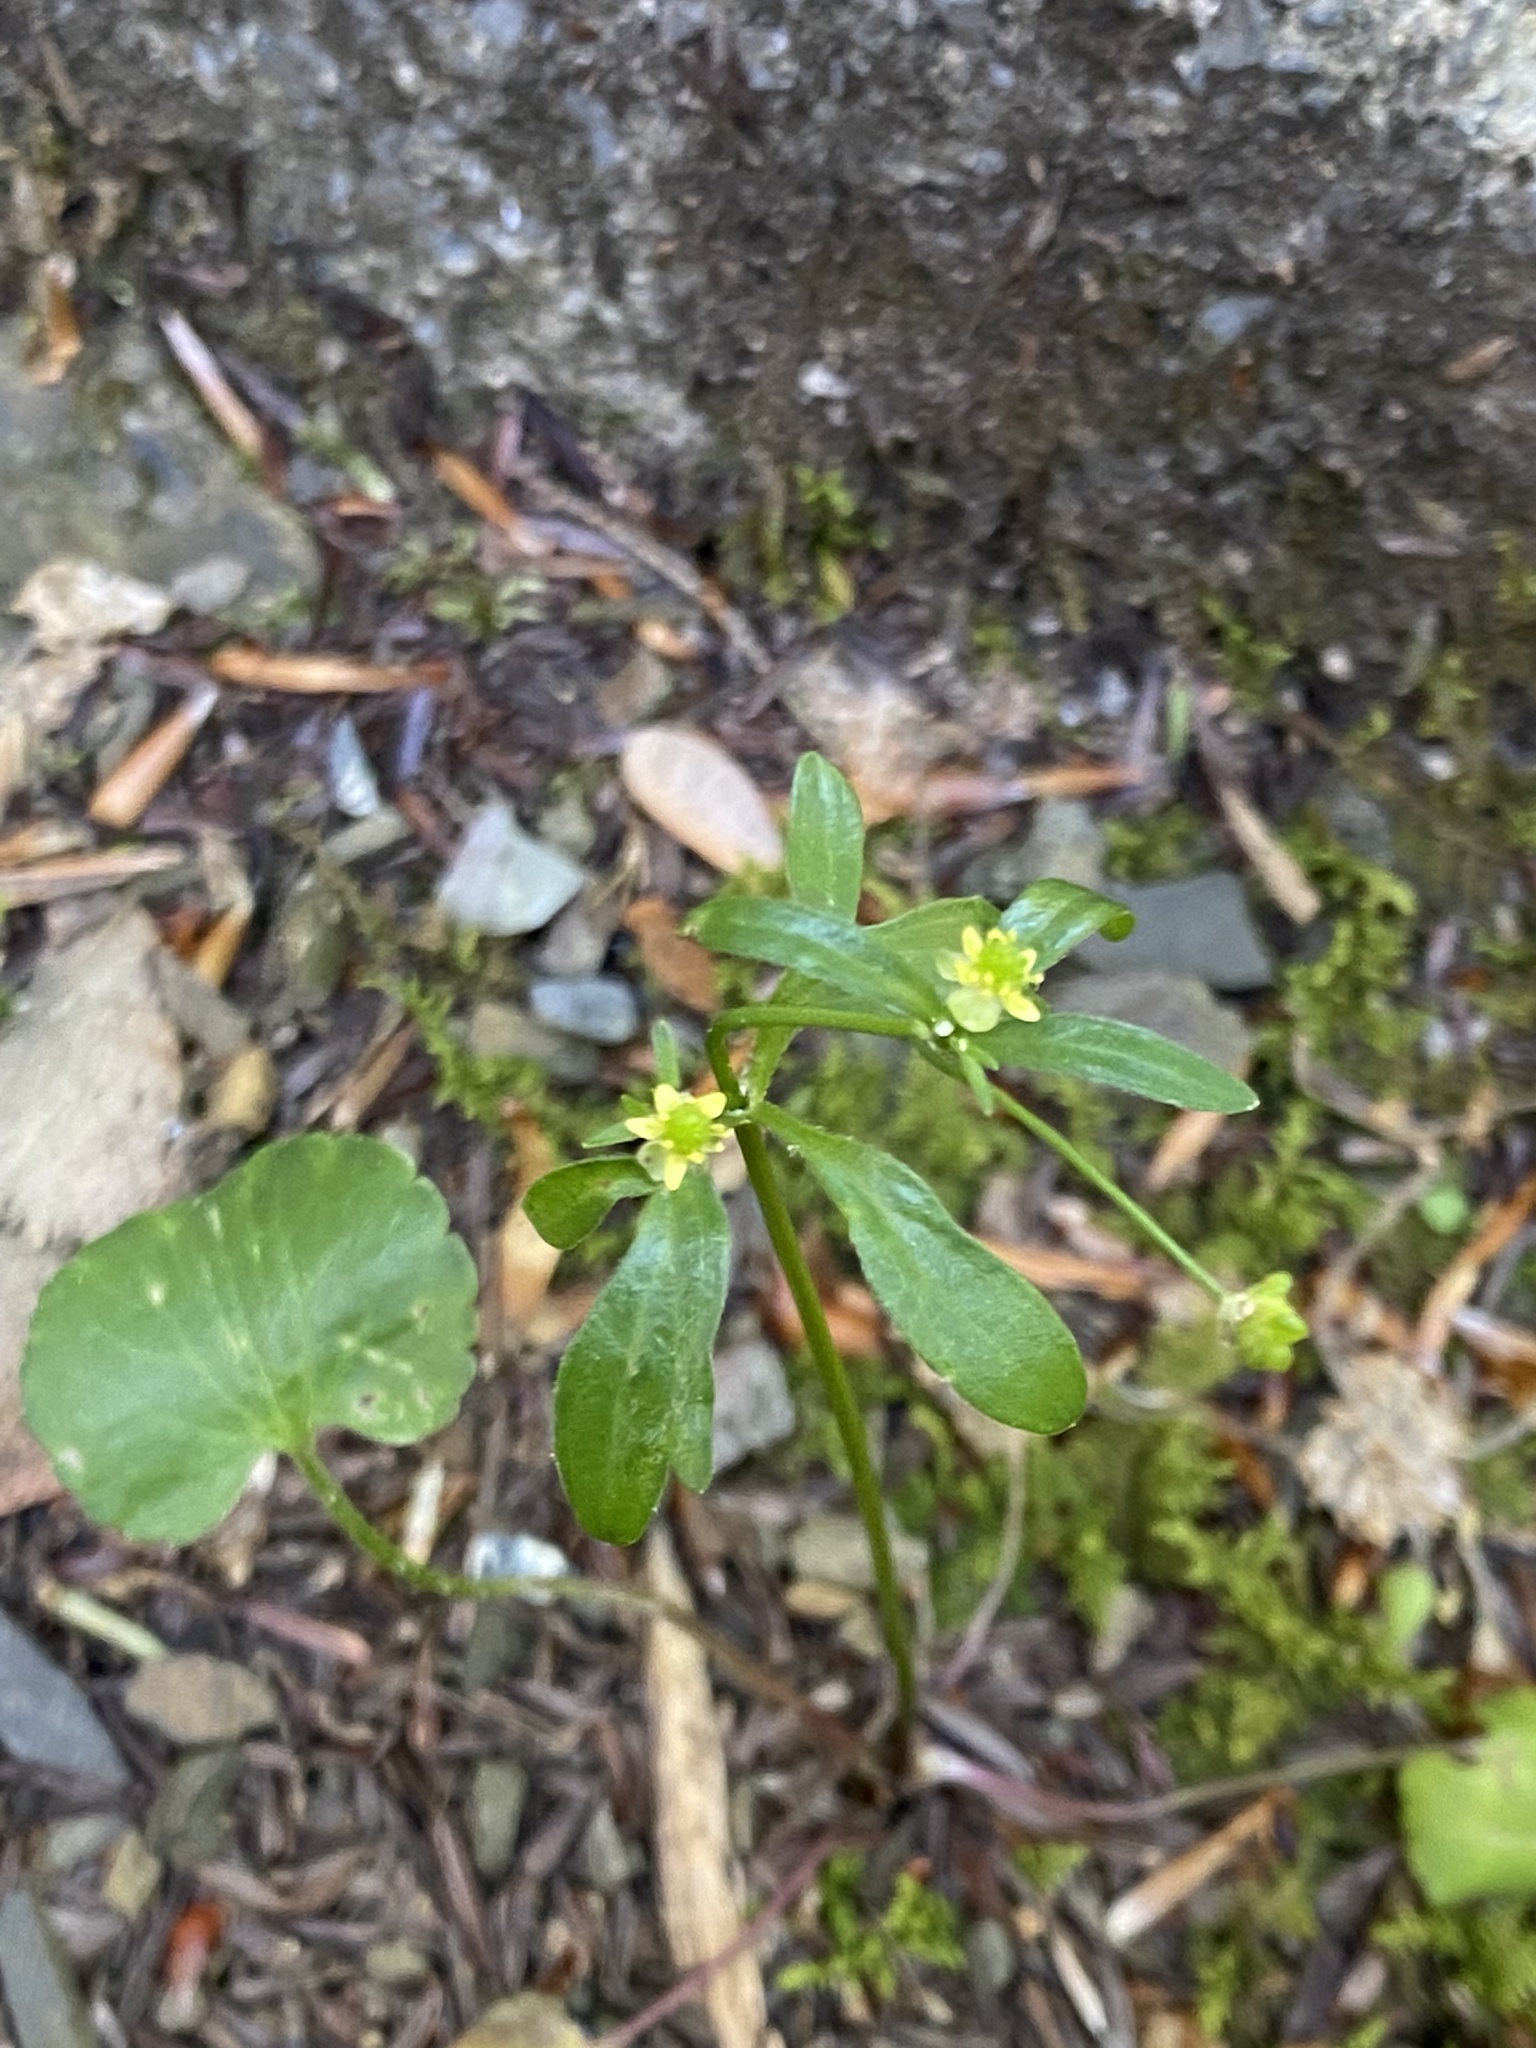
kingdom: Plantae
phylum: Tracheophyta
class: Magnoliopsida
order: Ranunculales
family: Ranunculaceae
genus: Ranunculus
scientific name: Ranunculus abortivus
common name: Early wood buttercup
